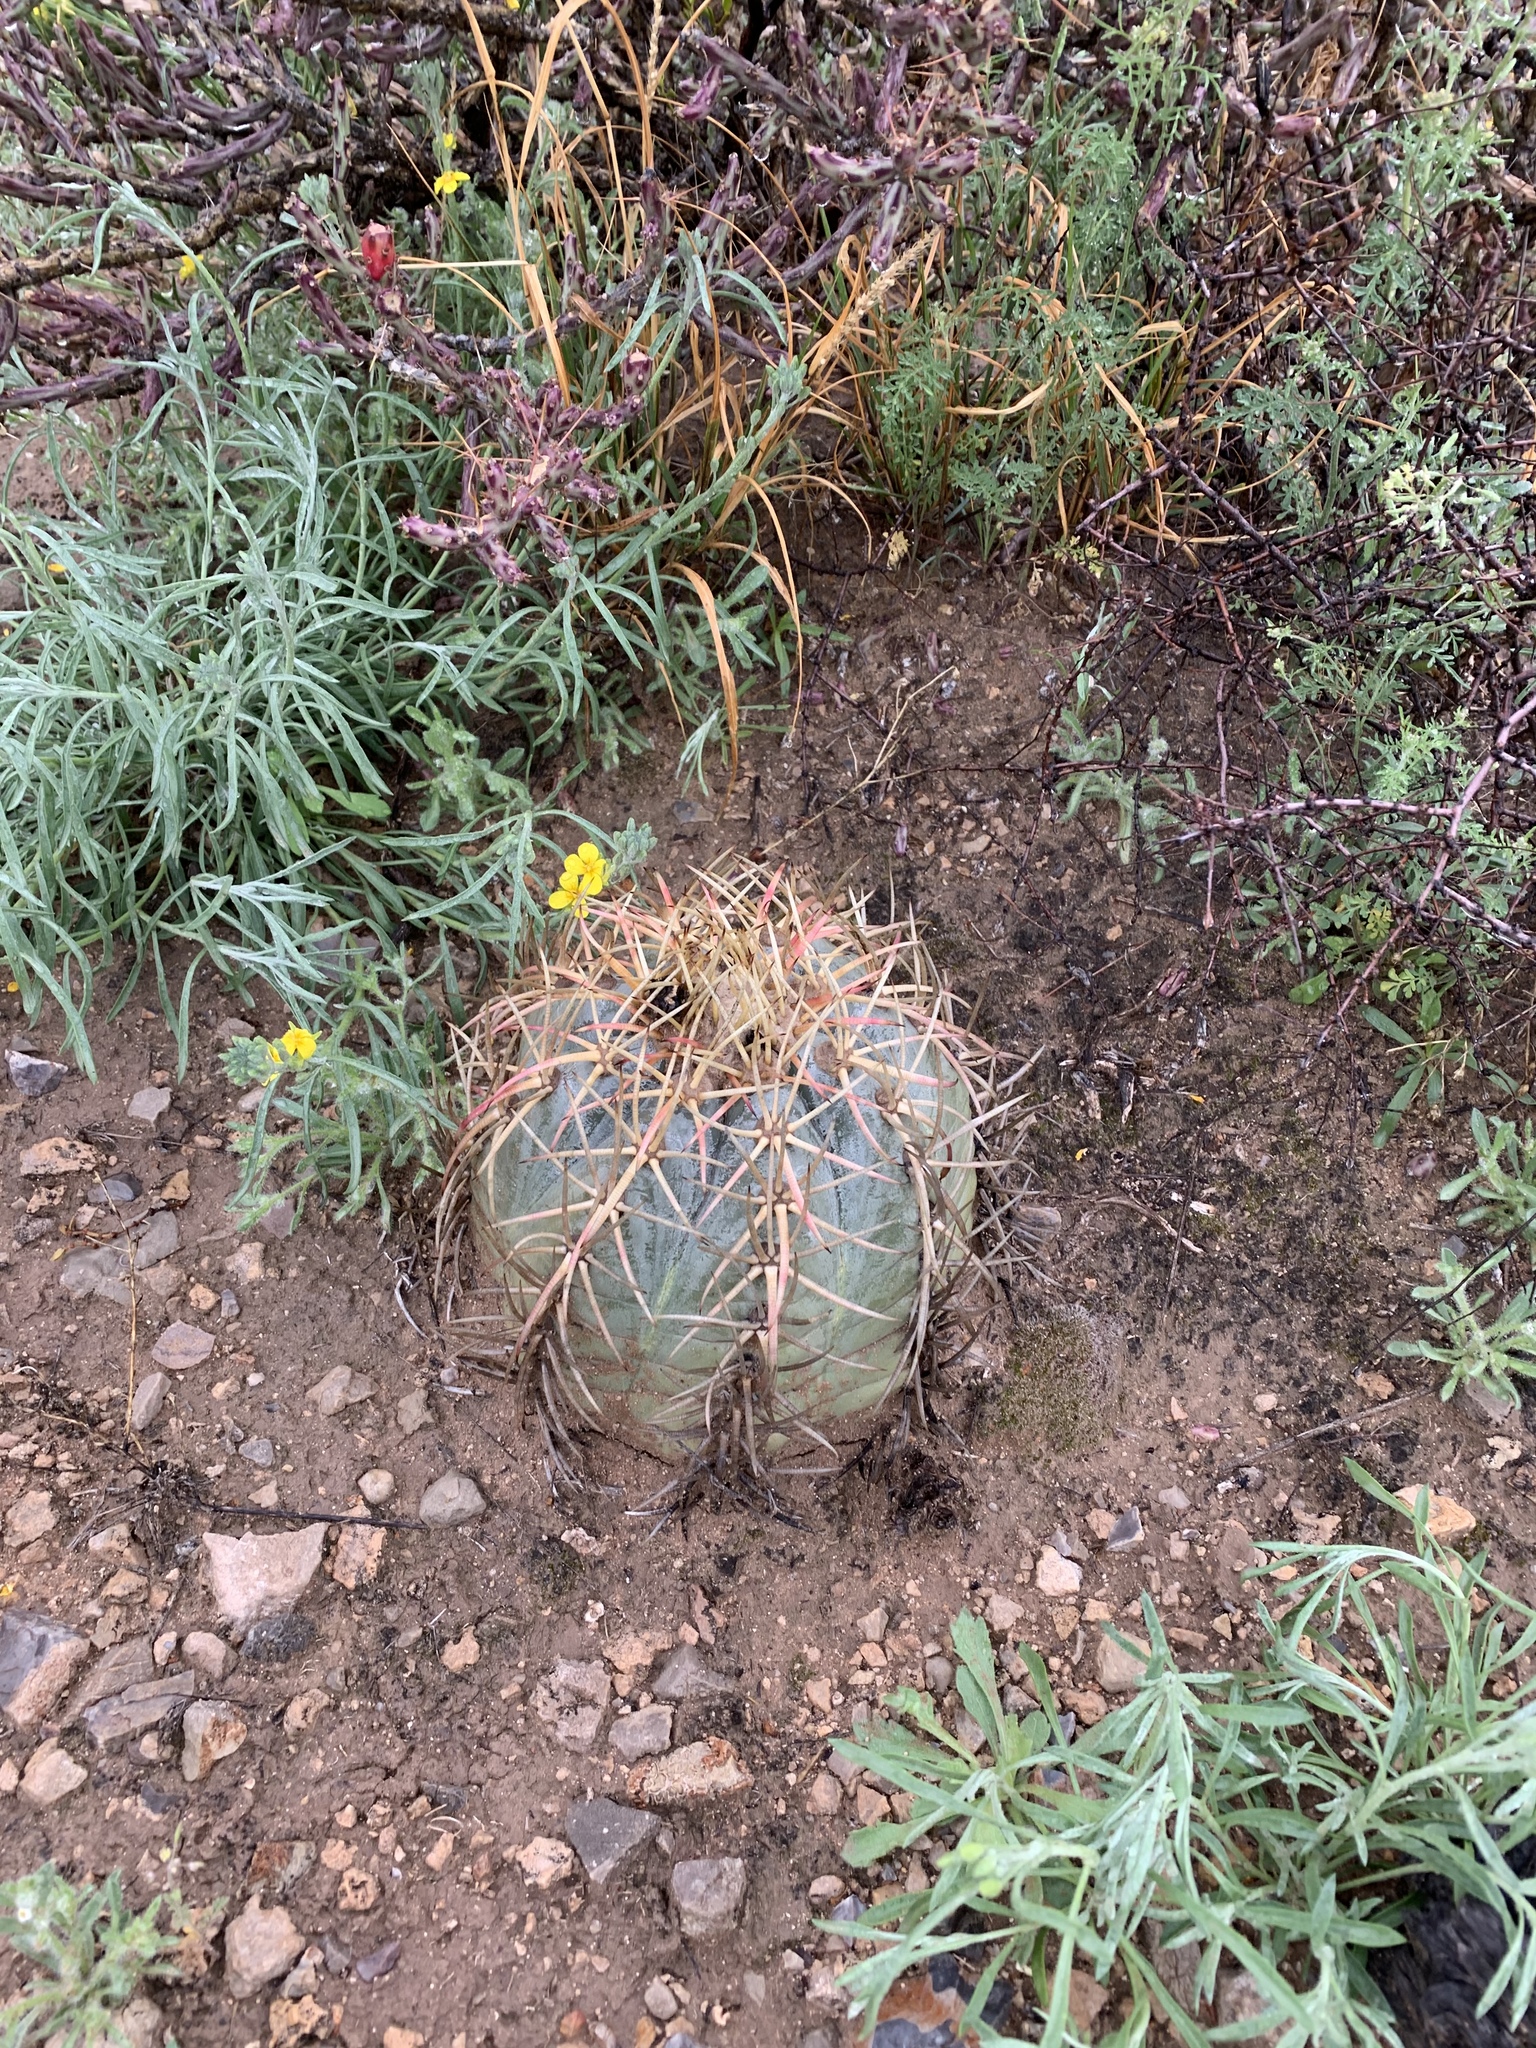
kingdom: Plantae
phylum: Tracheophyta
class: Magnoliopsida
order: Caryophyllales
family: Cactaceae
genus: Echinocactus
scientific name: Echinocactus horizonthalonius
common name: Devilshead
